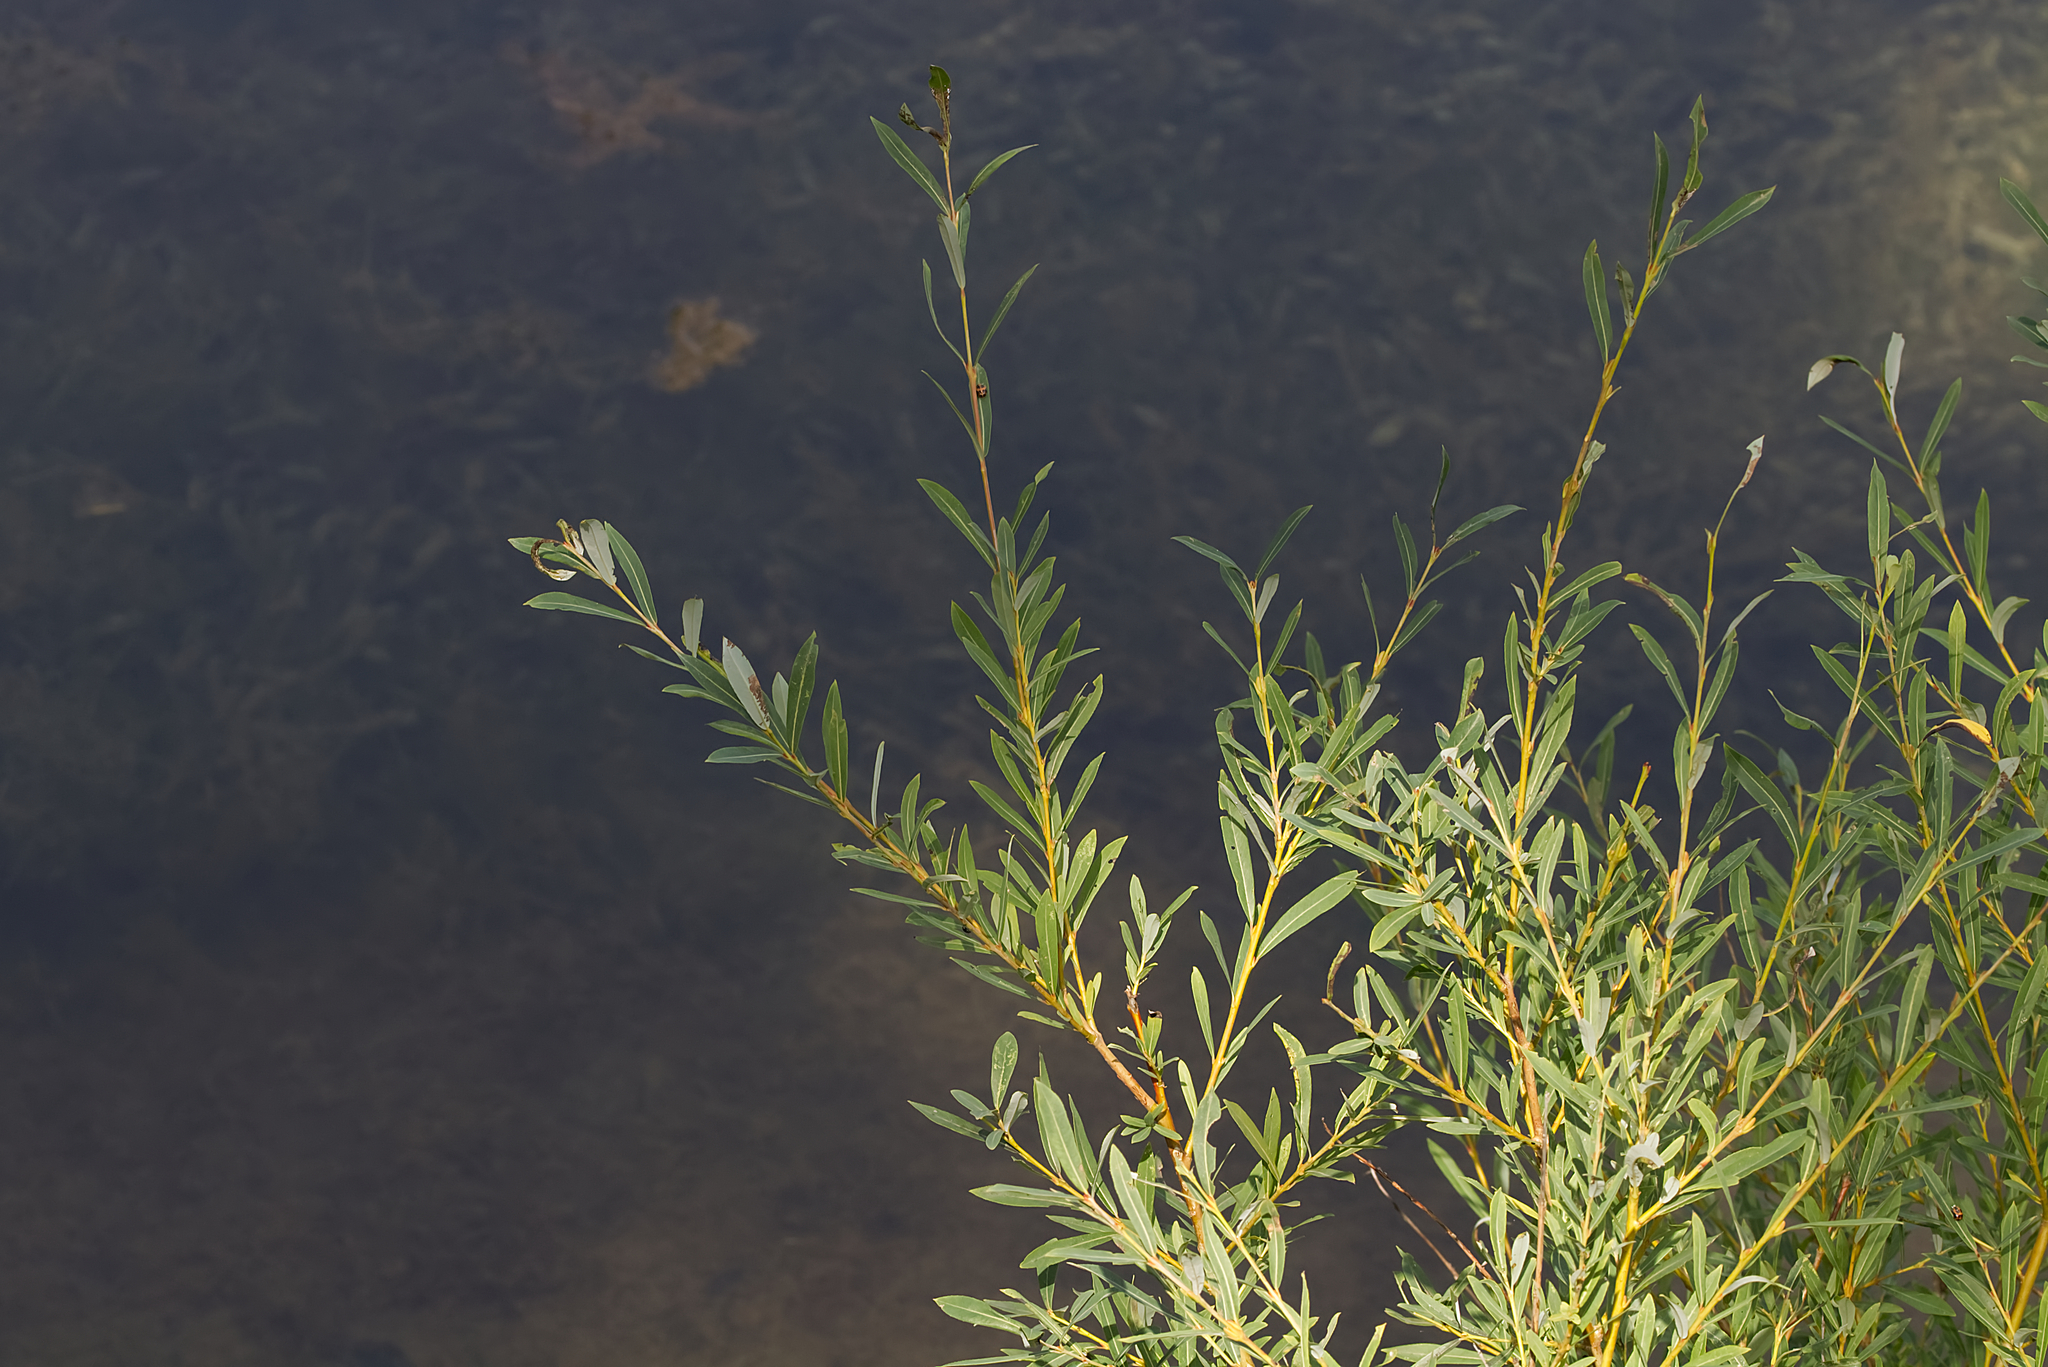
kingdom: Plantae
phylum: Tracheophyta
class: Magnoliopsida
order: Malpighiales
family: Salicaceae
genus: Salix
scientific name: Salix purpurea
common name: Purple willow
